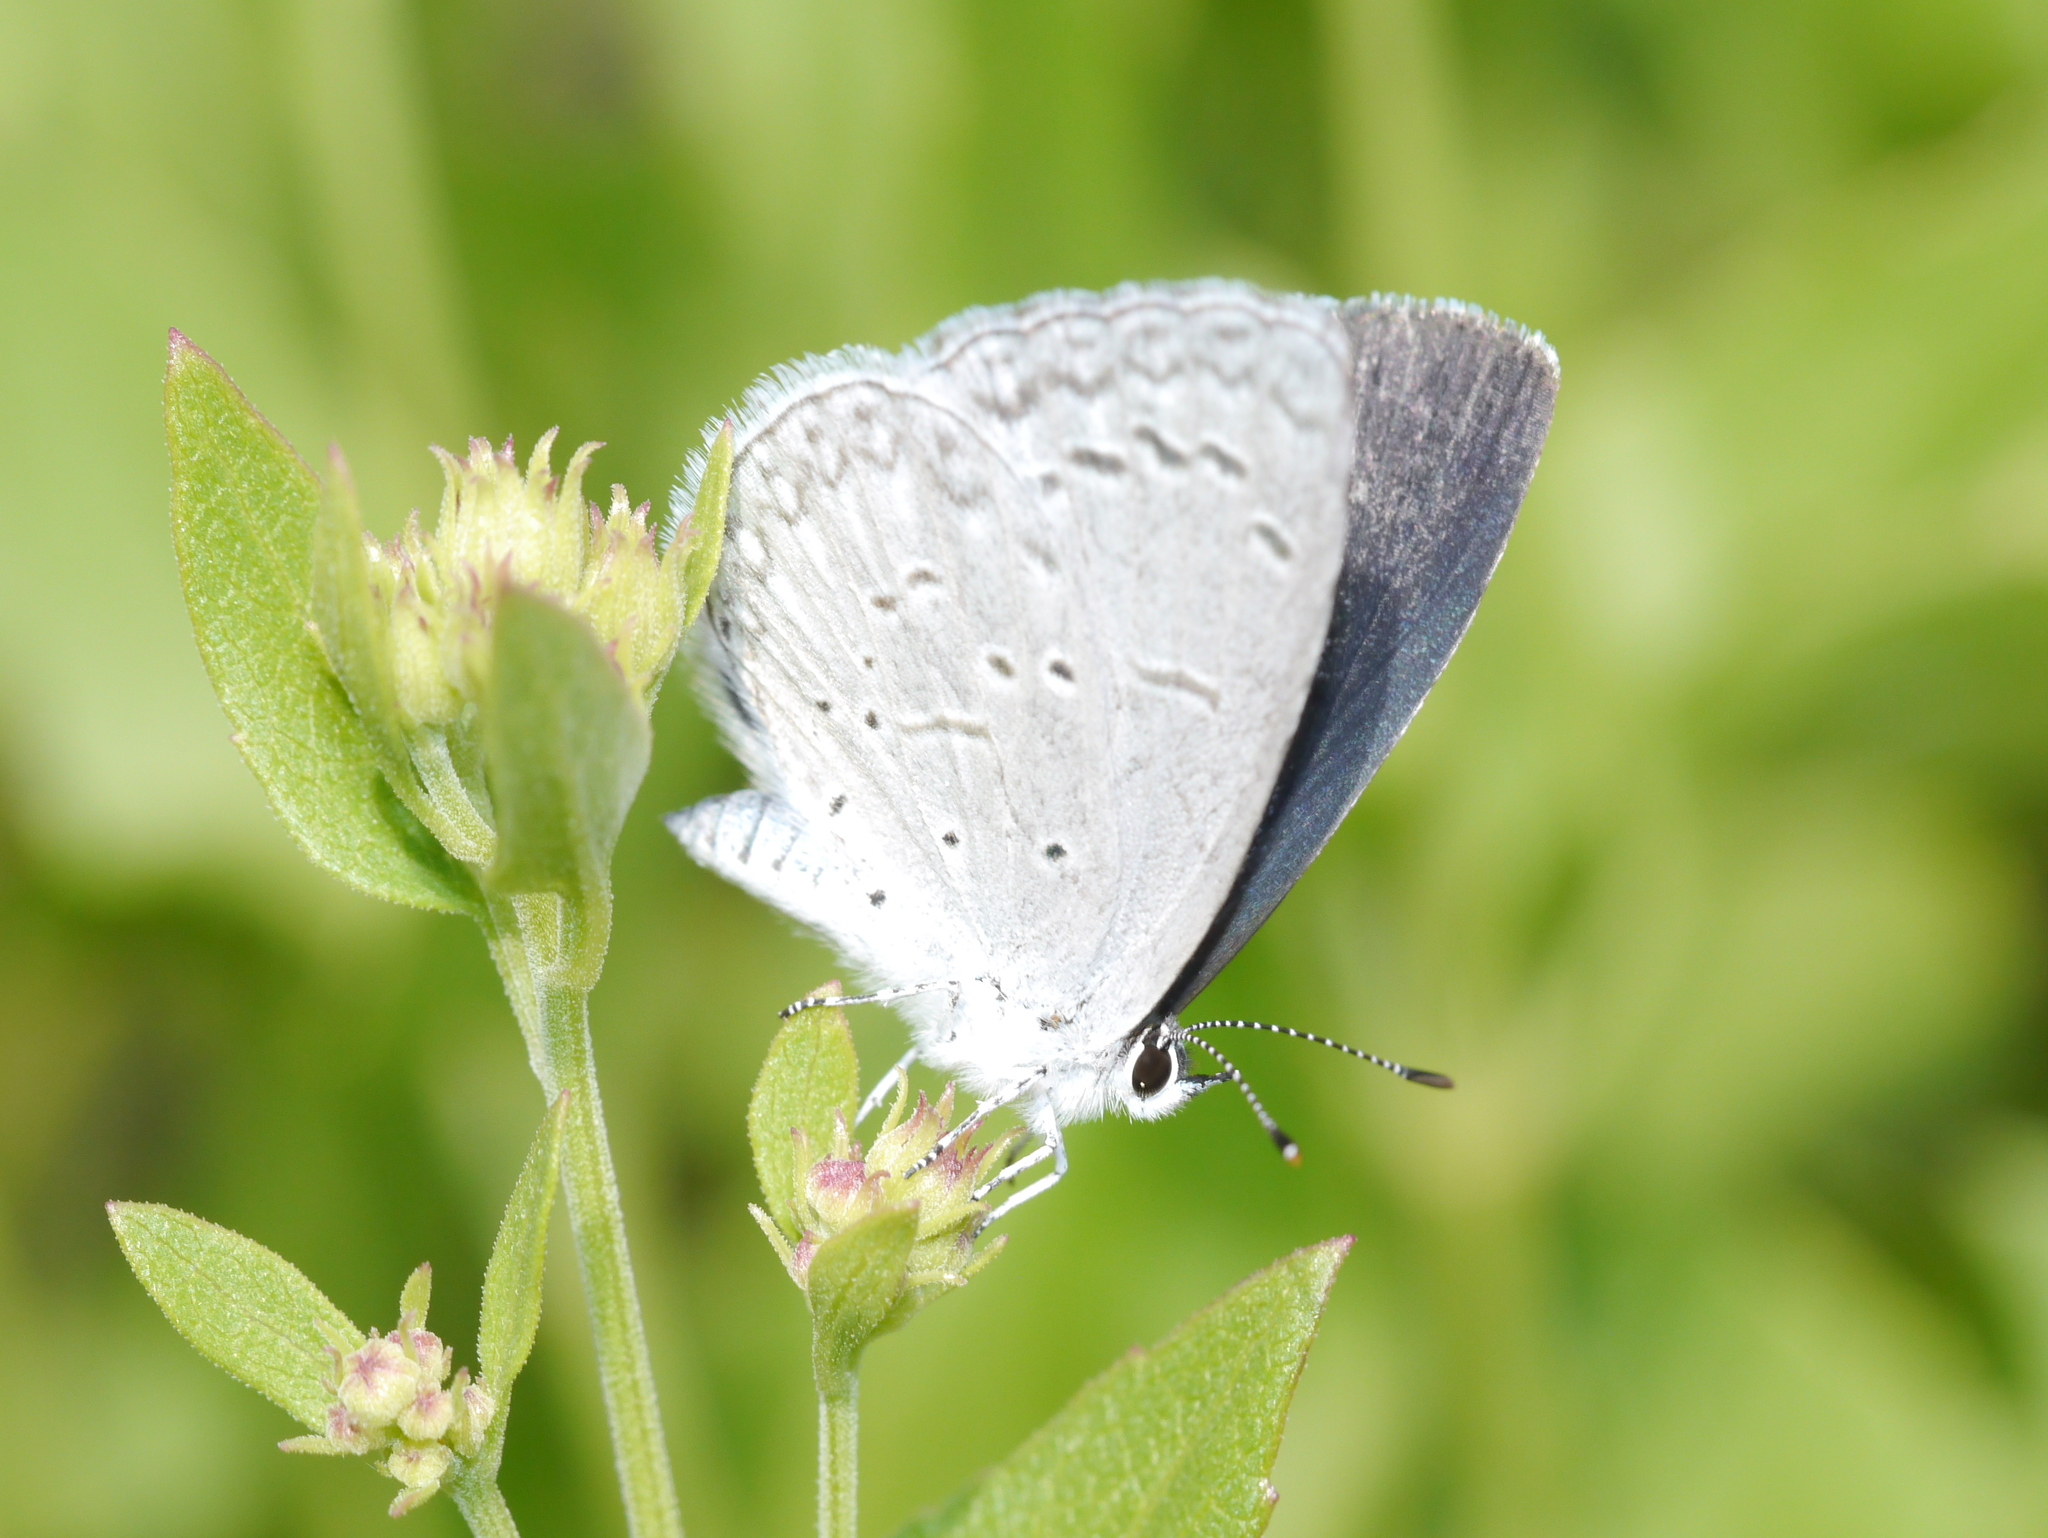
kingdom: Animalia
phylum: Arthropoda
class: Insecta
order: Lepidoptera
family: Lycaenidae
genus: Celastrina
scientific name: Celastrina ladon
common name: Spring azure
